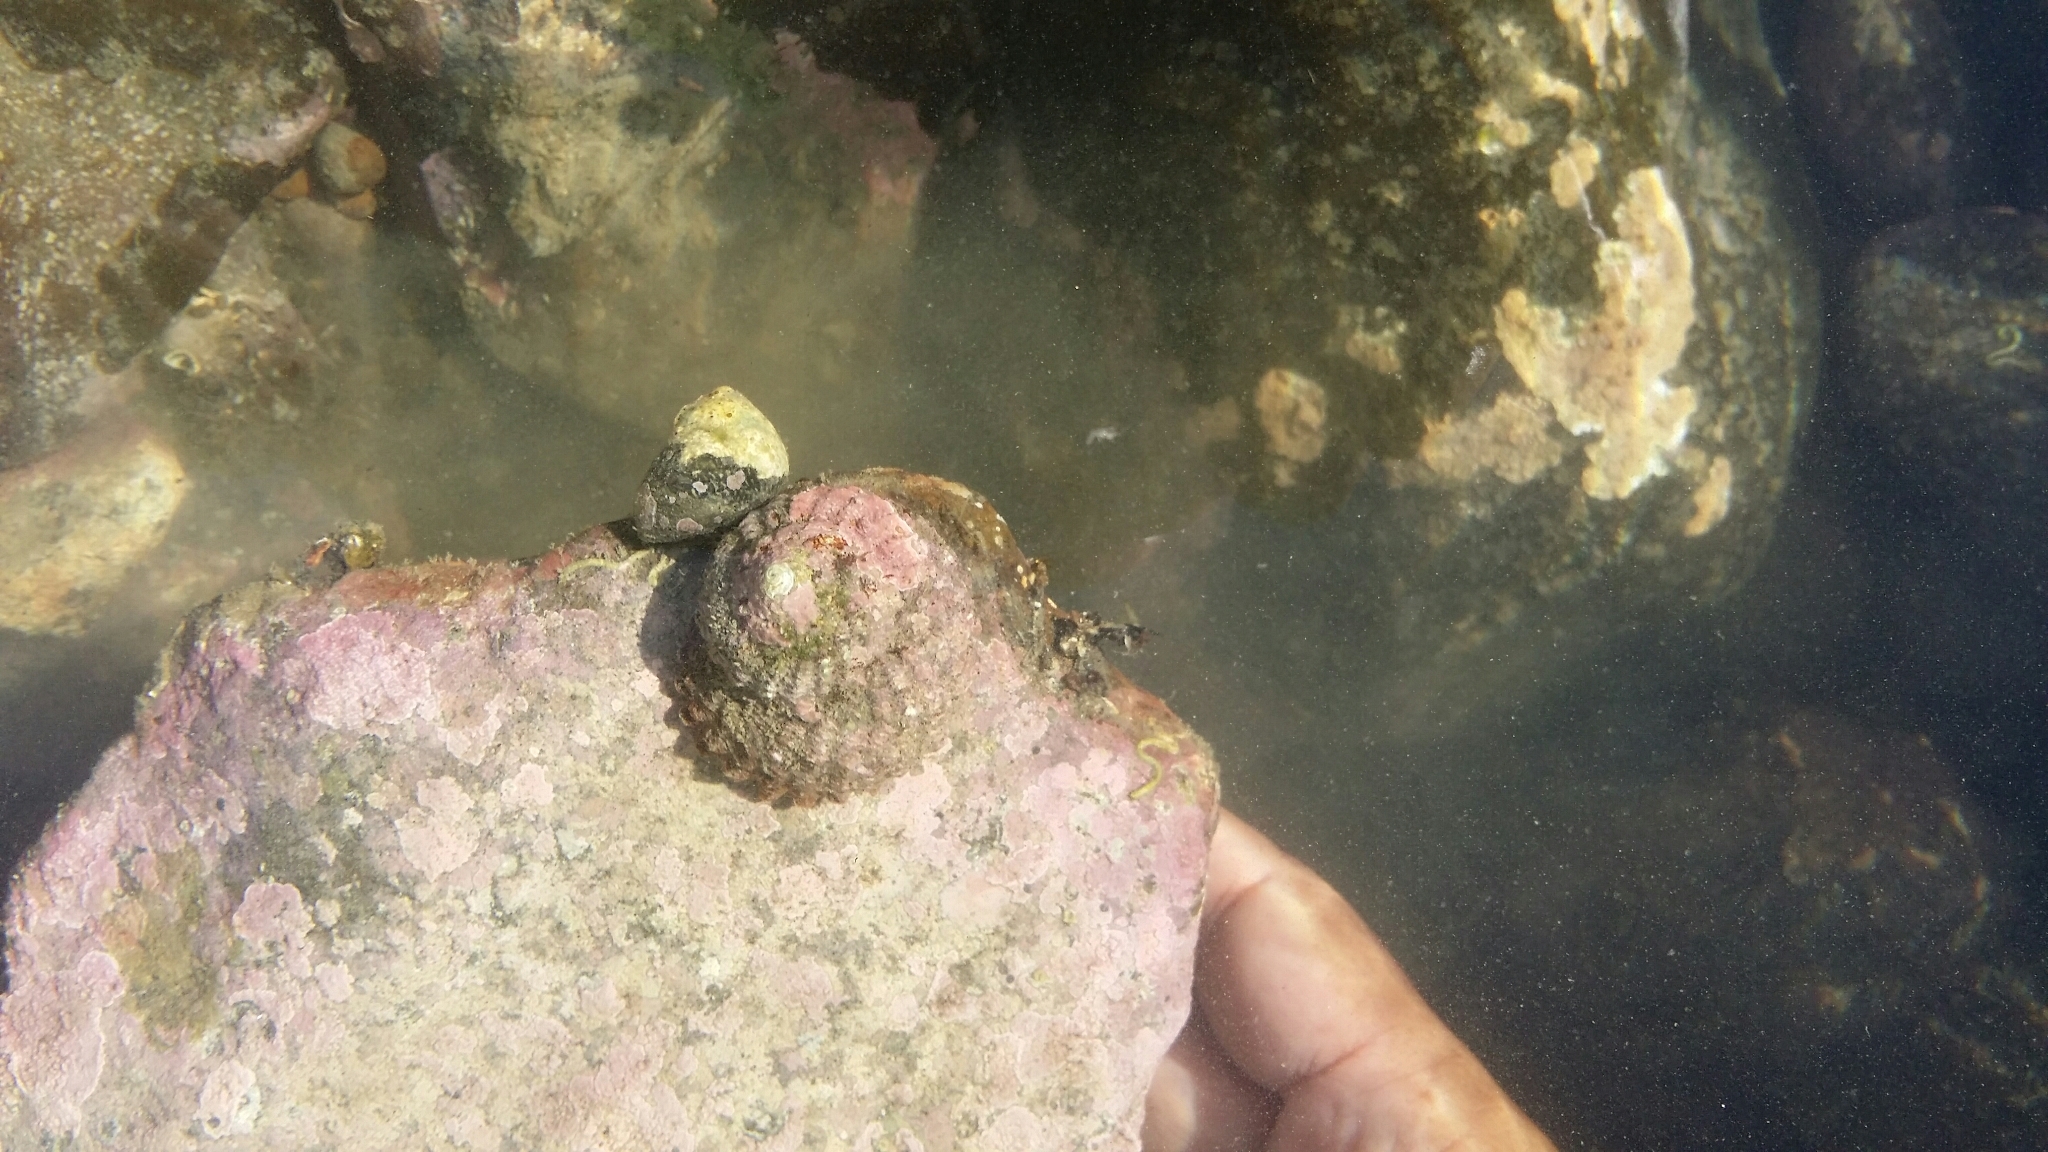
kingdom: Animalia
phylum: Mollusca
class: Gastropoda
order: Trochida
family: Turbinidae
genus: Cookia
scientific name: Cookia sulcata
